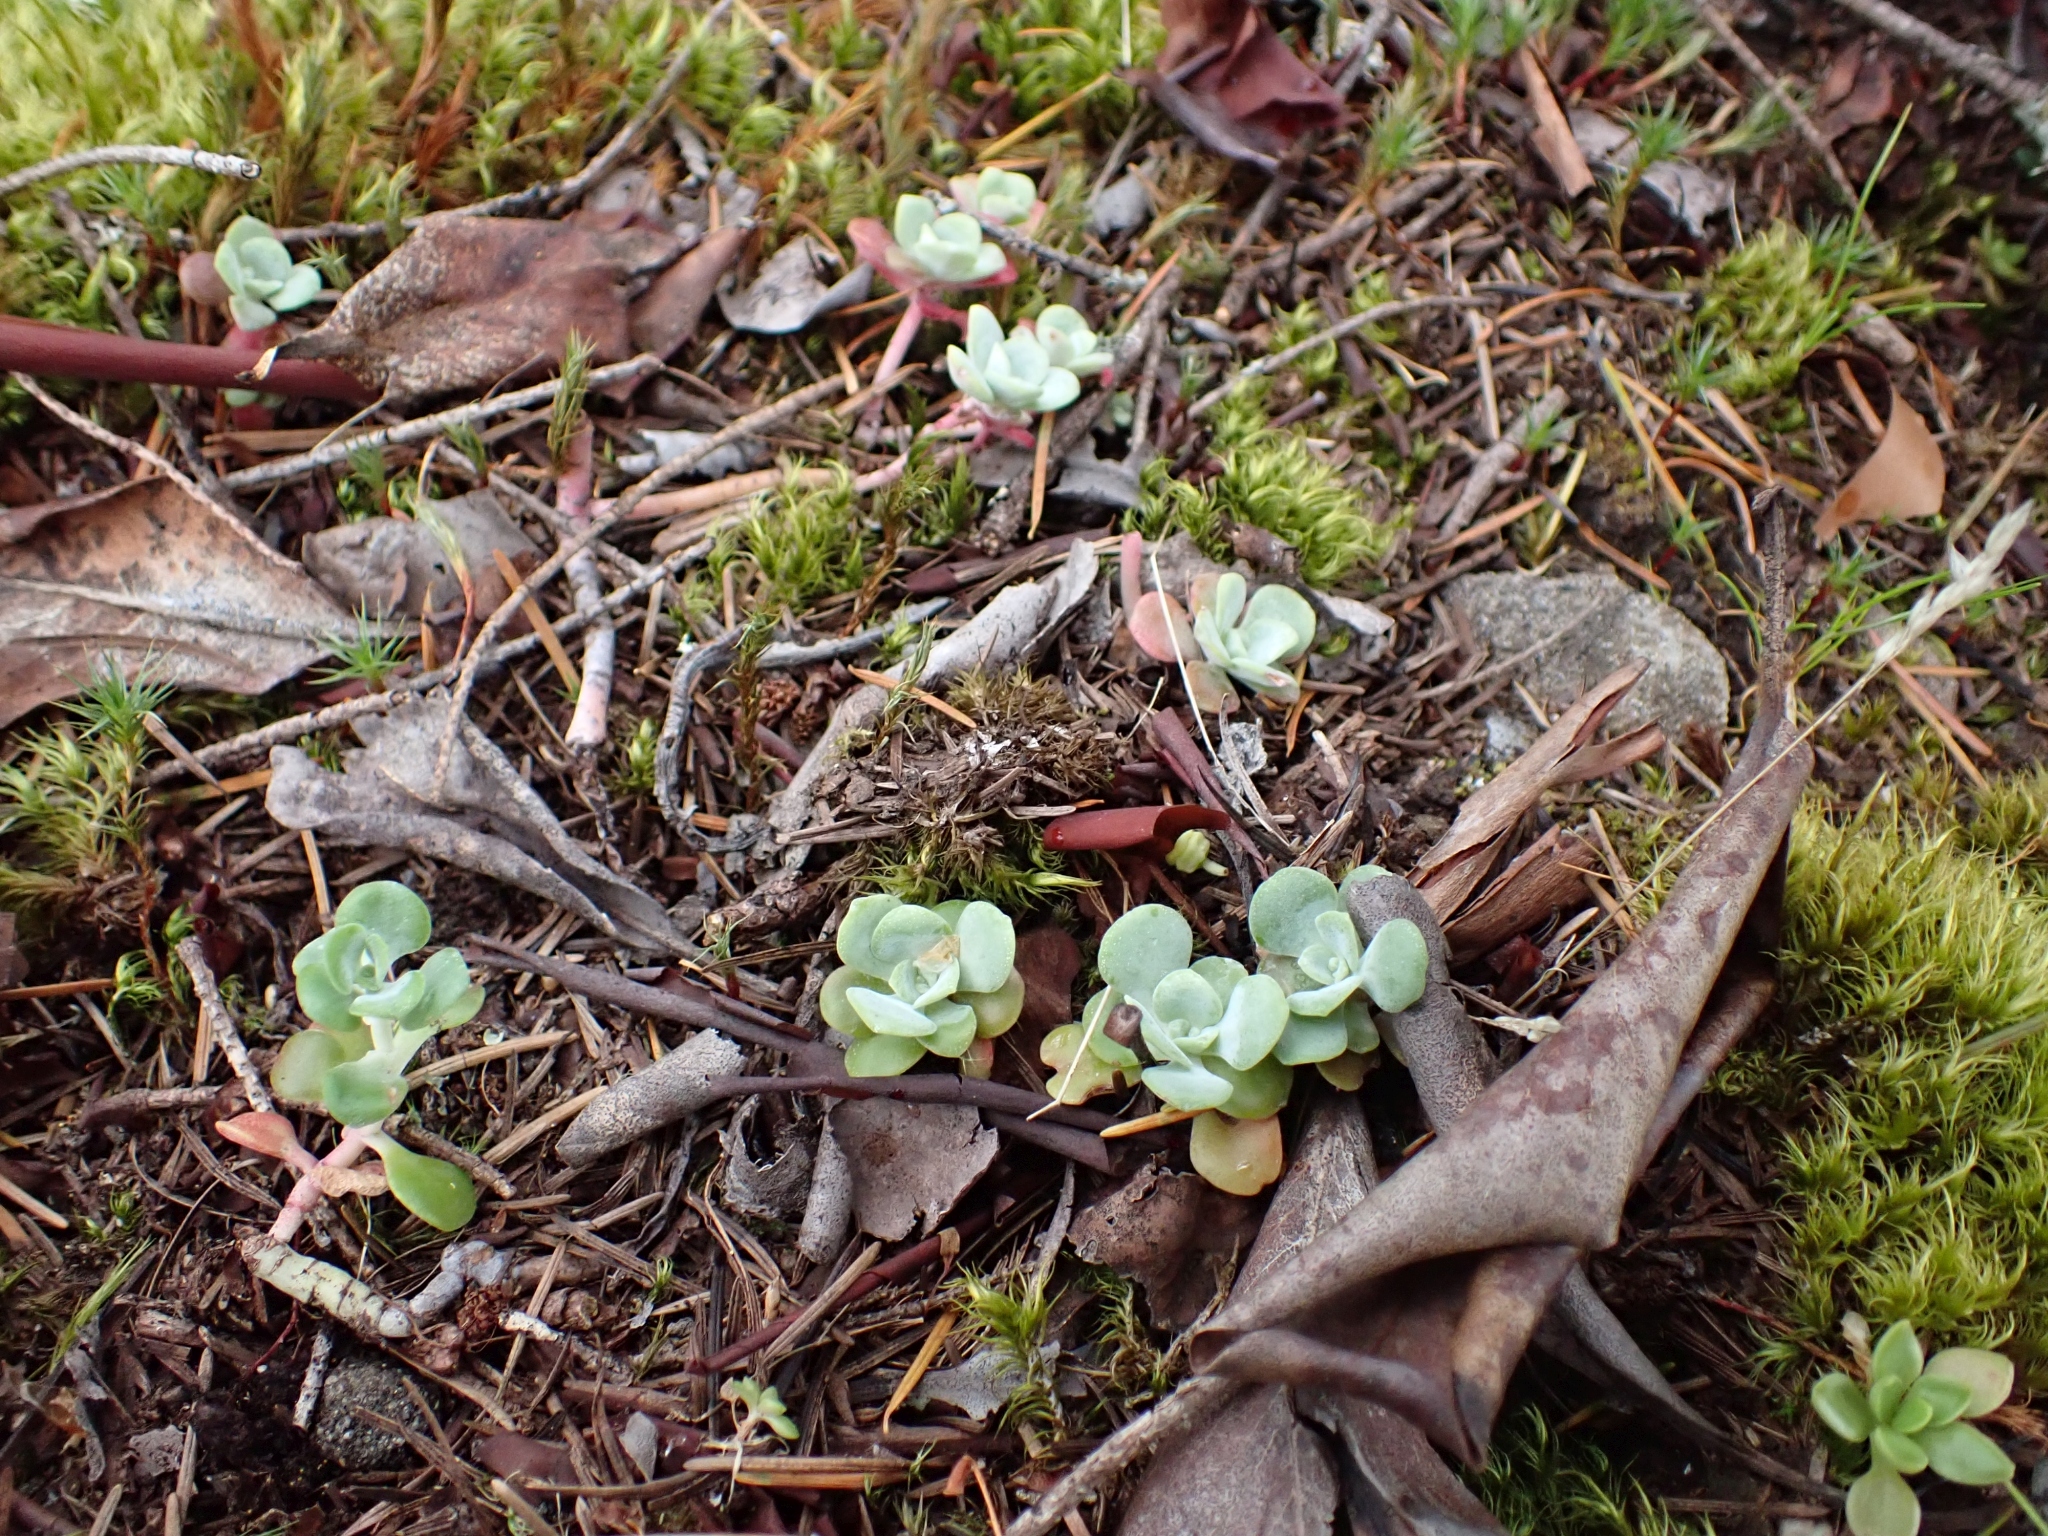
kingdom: Plantae
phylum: Tracheophyta
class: Magnoliopsida
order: Saxifragales
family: Crassulaceae
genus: Sedum
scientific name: Sedum spathulifolium
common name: Colorado stonecrop
